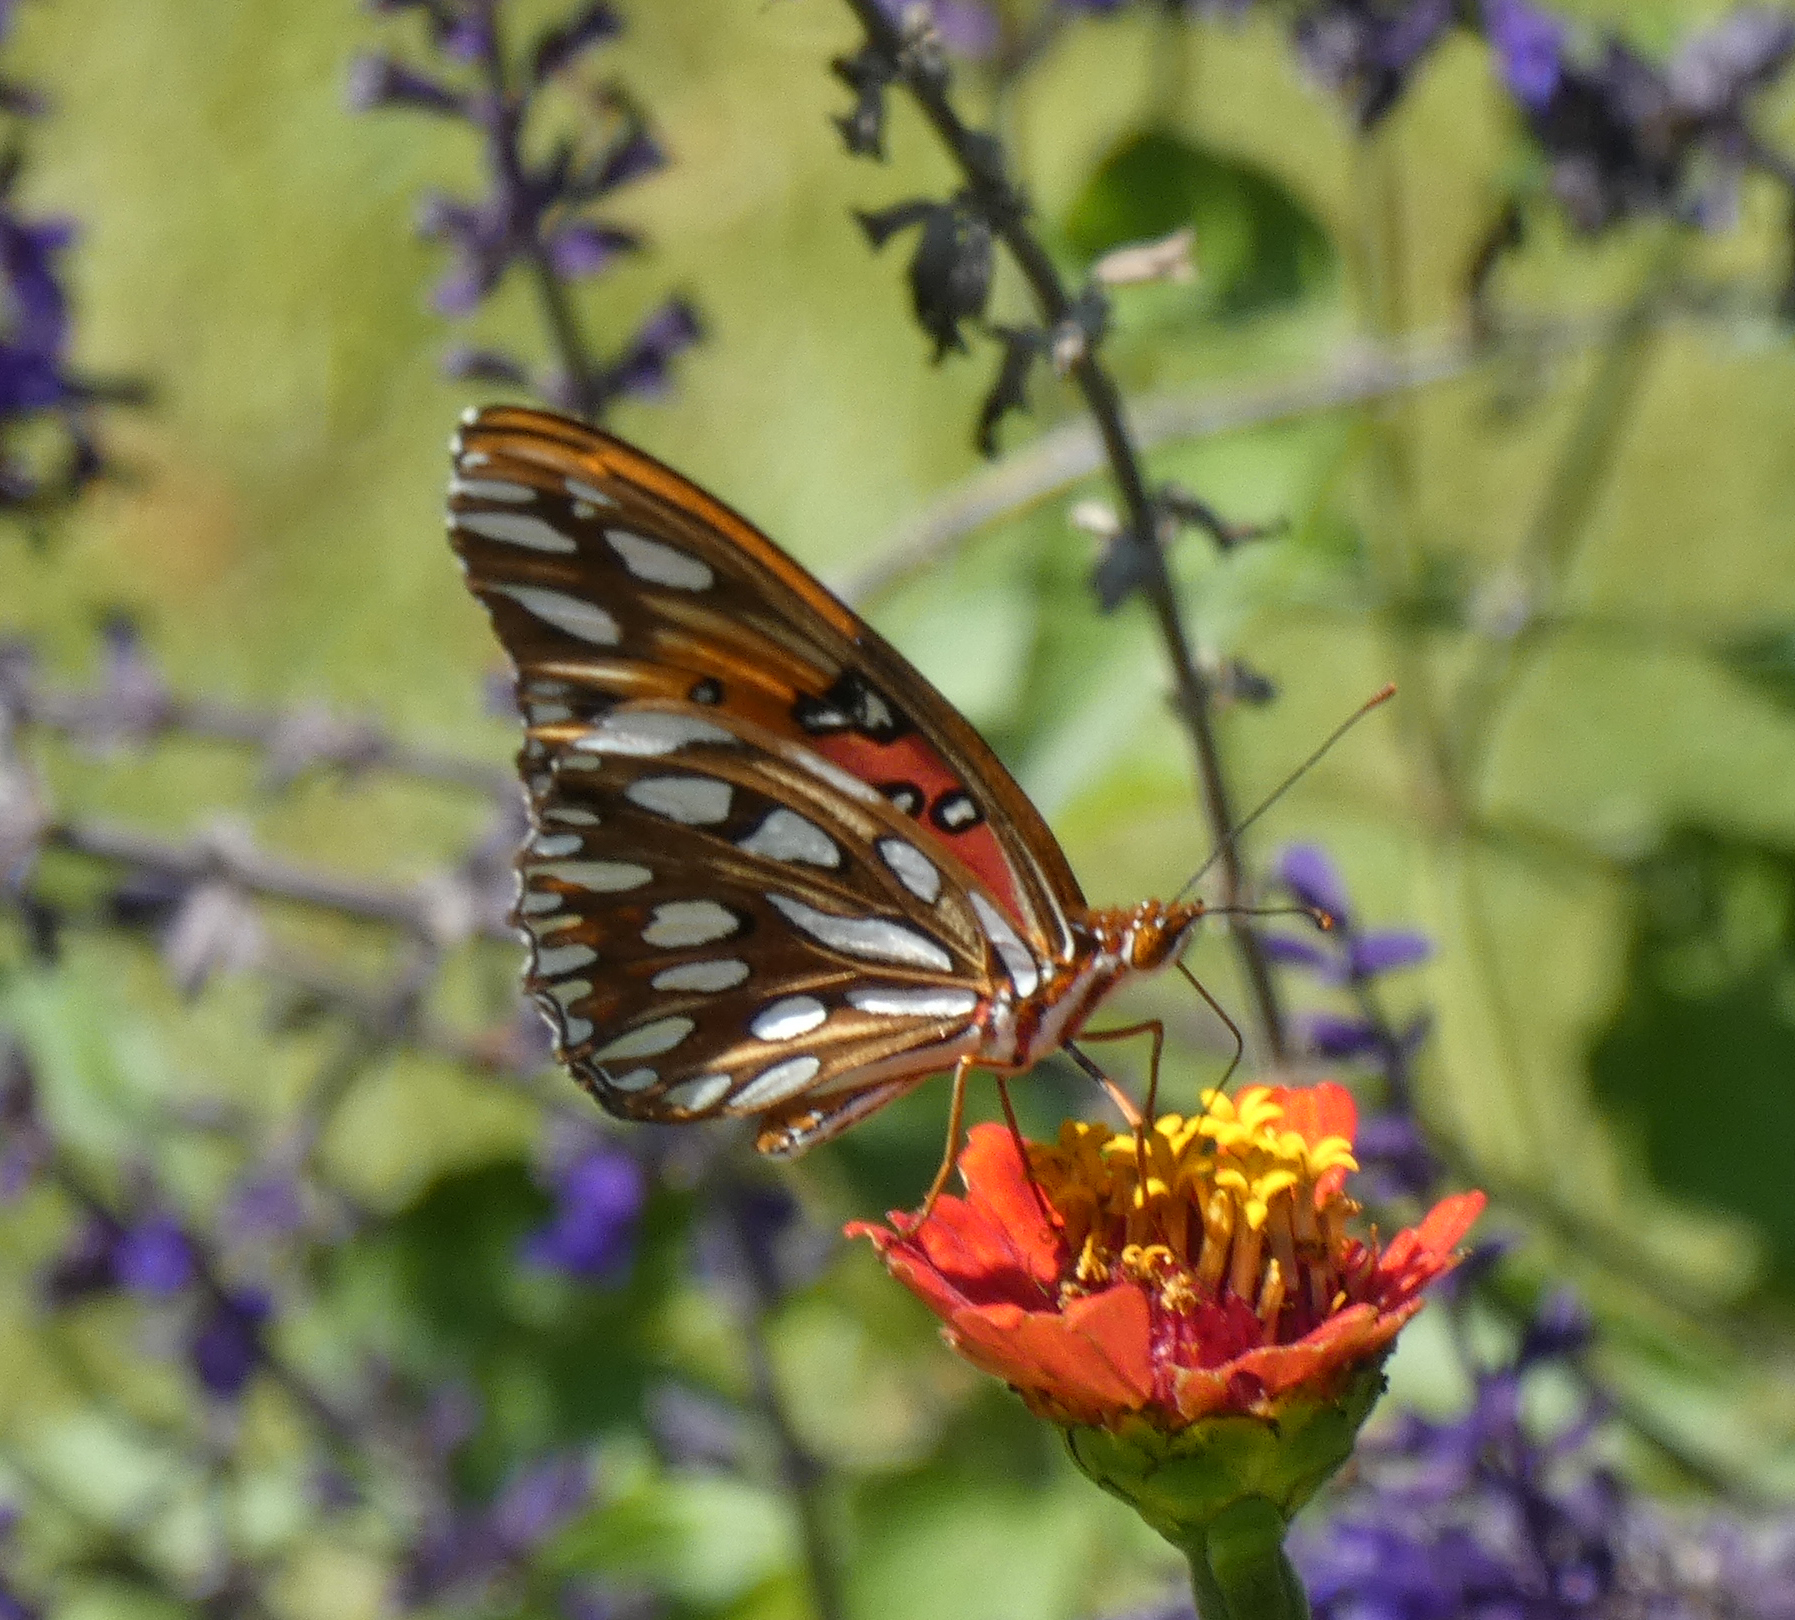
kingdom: Animalia
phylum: Arthropoda
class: Insecta
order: Lepidoptera
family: Nymphalidae
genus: Dione
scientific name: Dione vanillae
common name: Gulf fritillary
